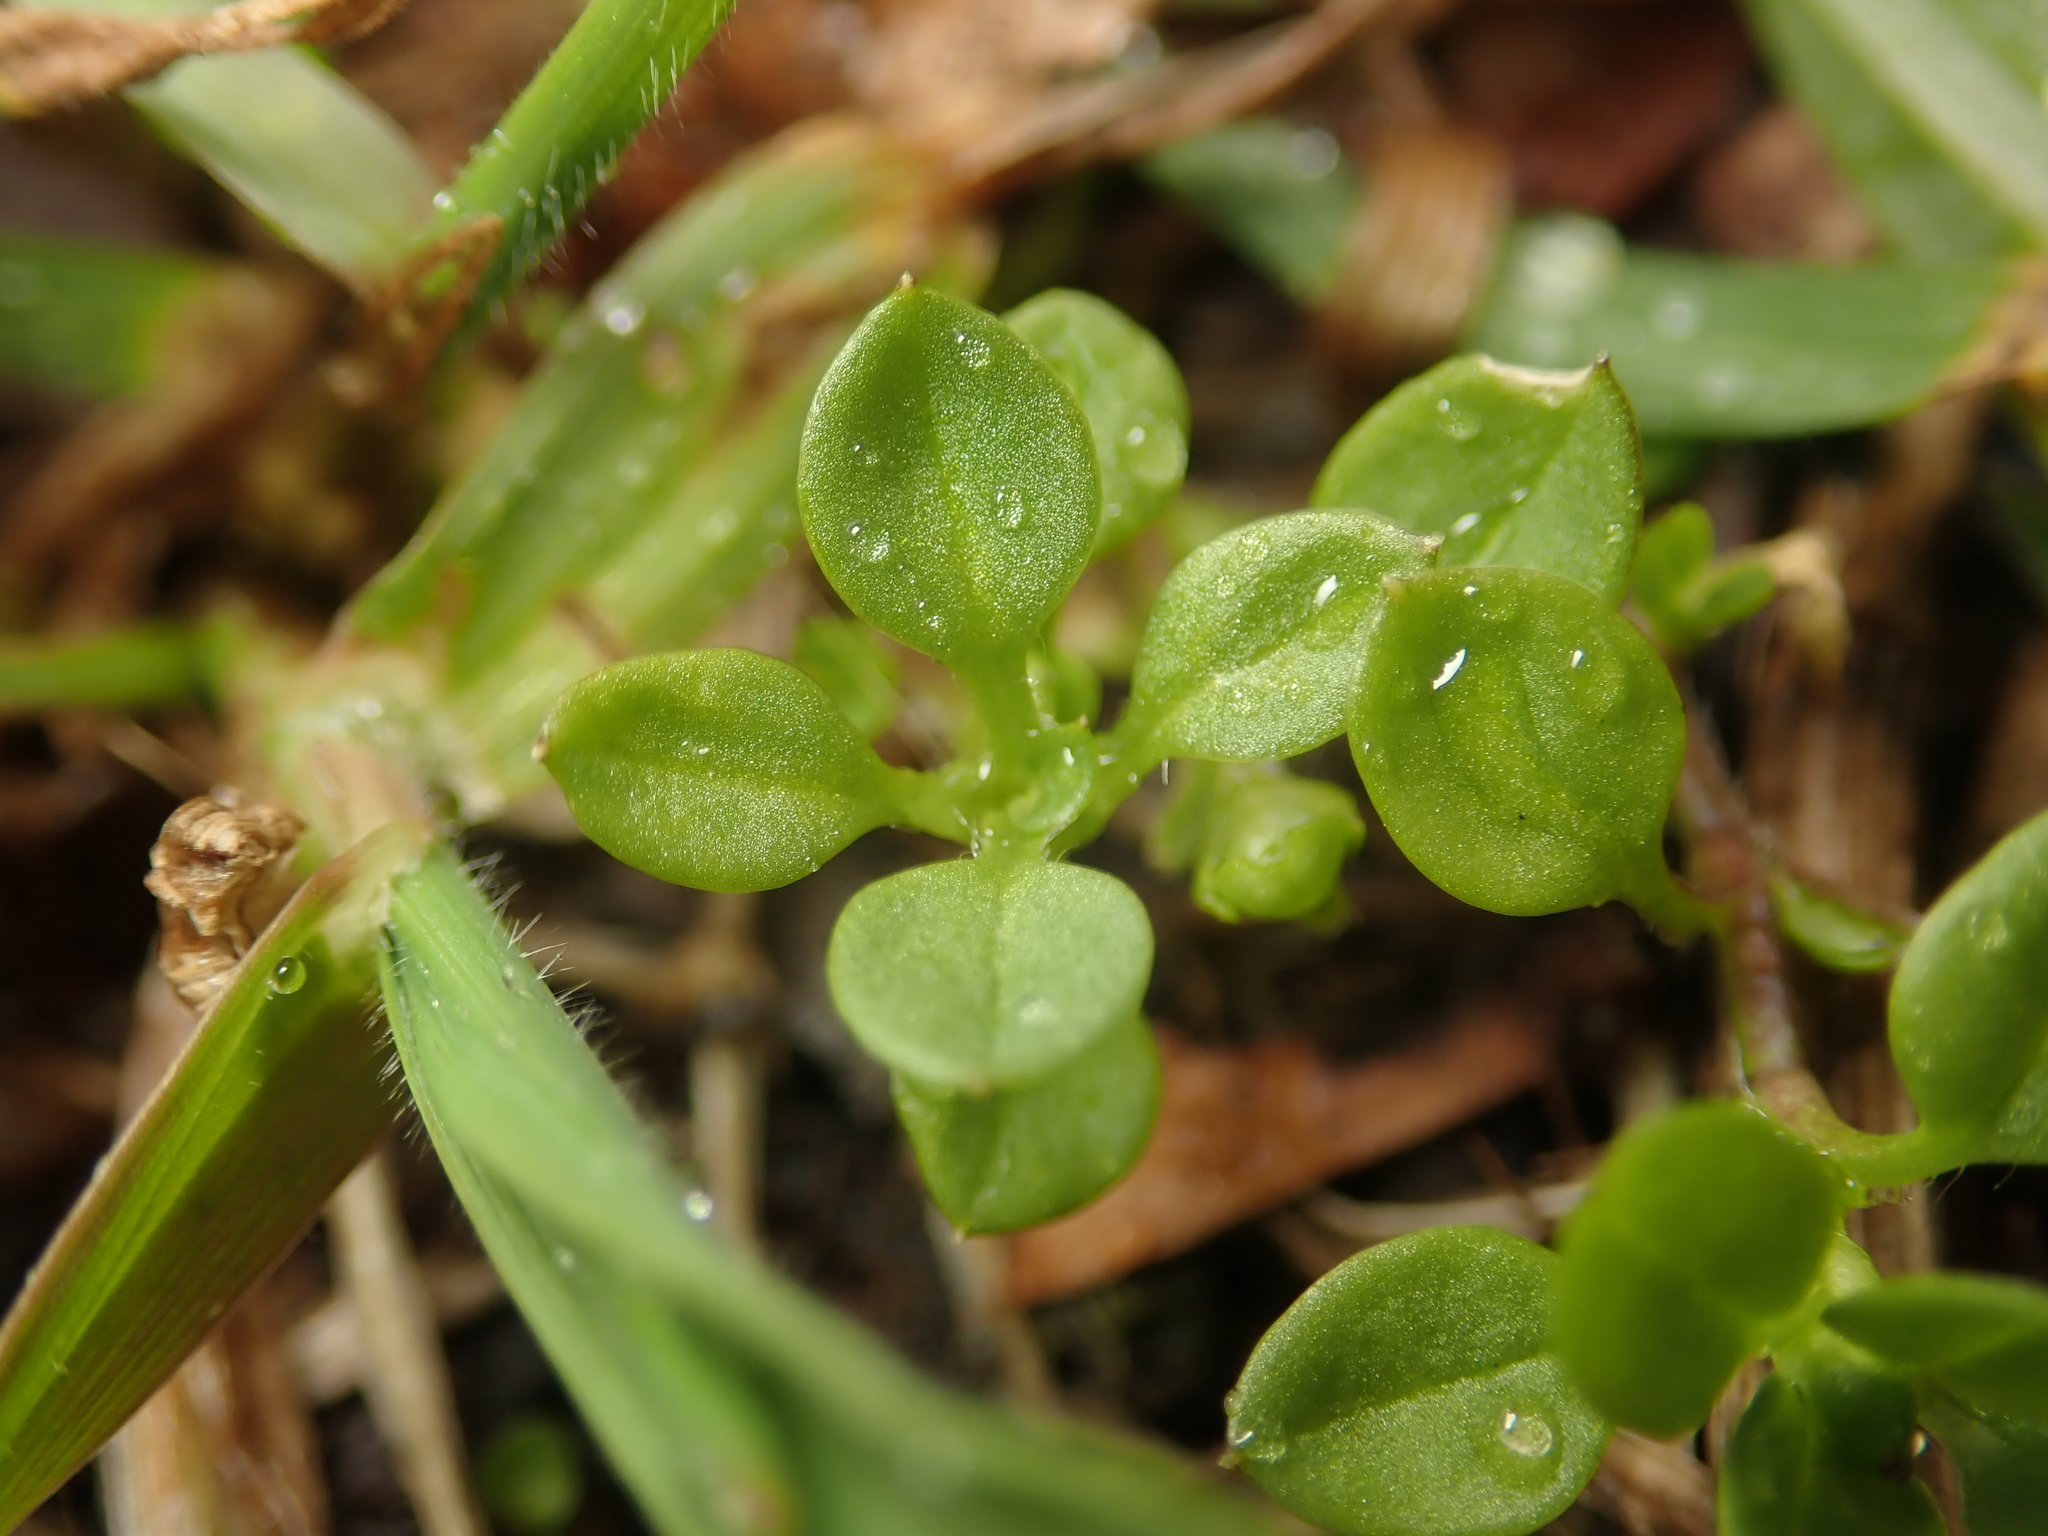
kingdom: Plantae
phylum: Tracheophyta
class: Magnoliopsida
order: Caryophyllales
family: Caryophyllaceae
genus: Stellaria
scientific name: Stellaria media
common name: Common chickweed
